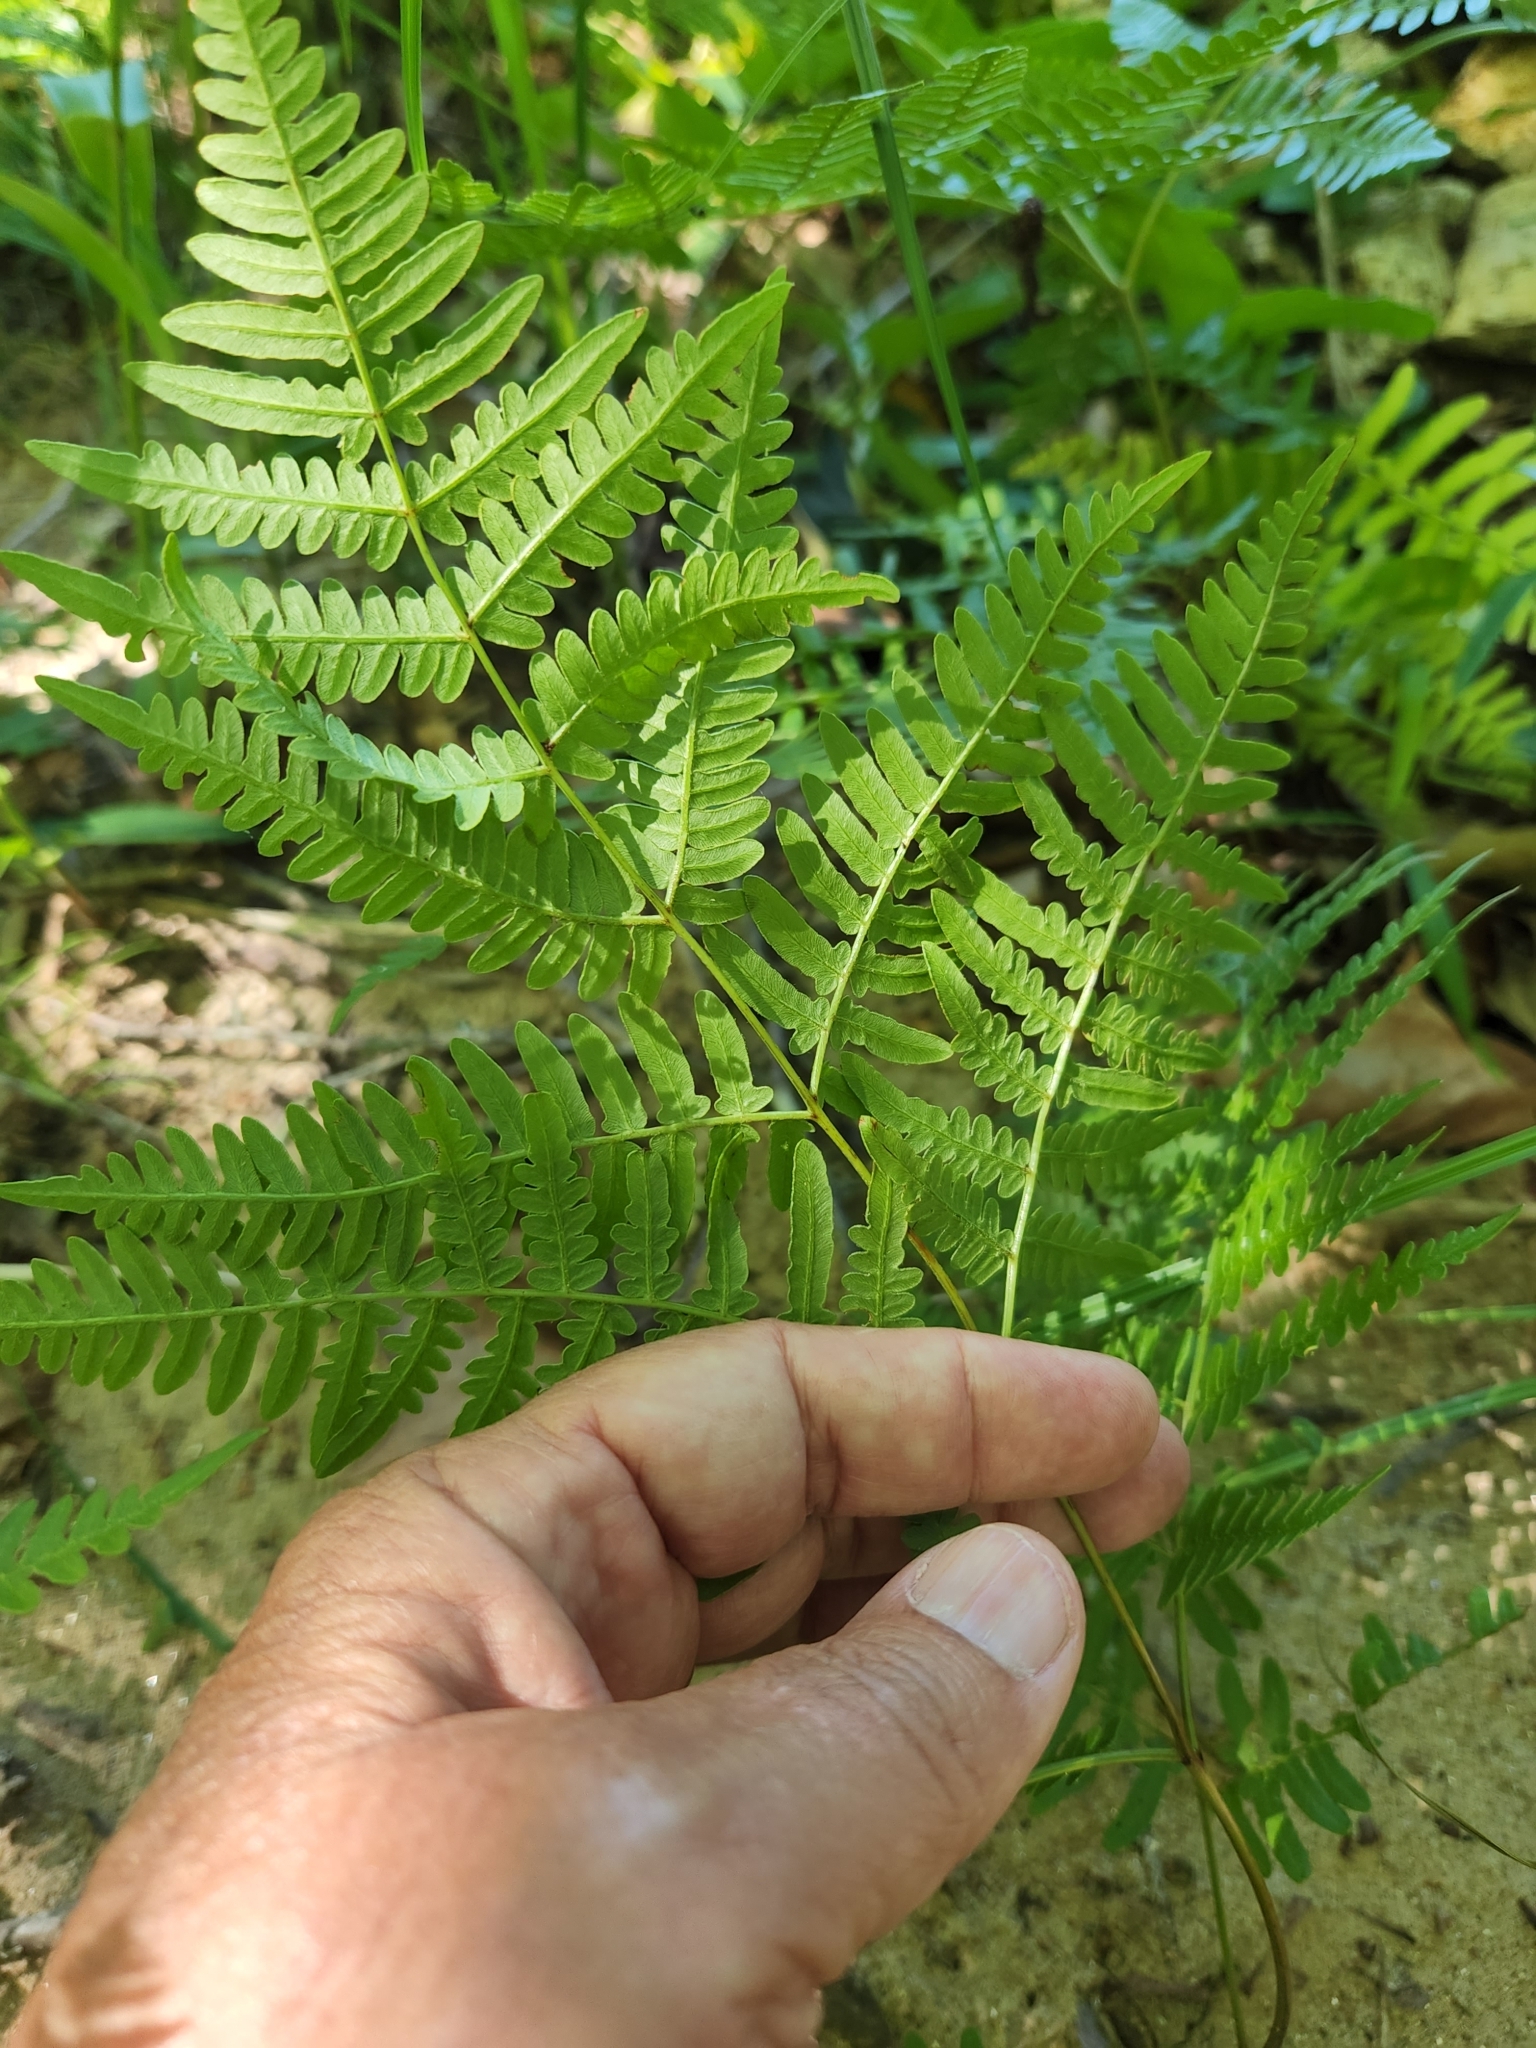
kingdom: Plantae
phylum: Tracheophyta
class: Polypodiopsida
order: Polypodiales
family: Dryopteridaceae
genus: Dryopteris
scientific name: Dryopteris marginalis
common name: Marginal wood fern
